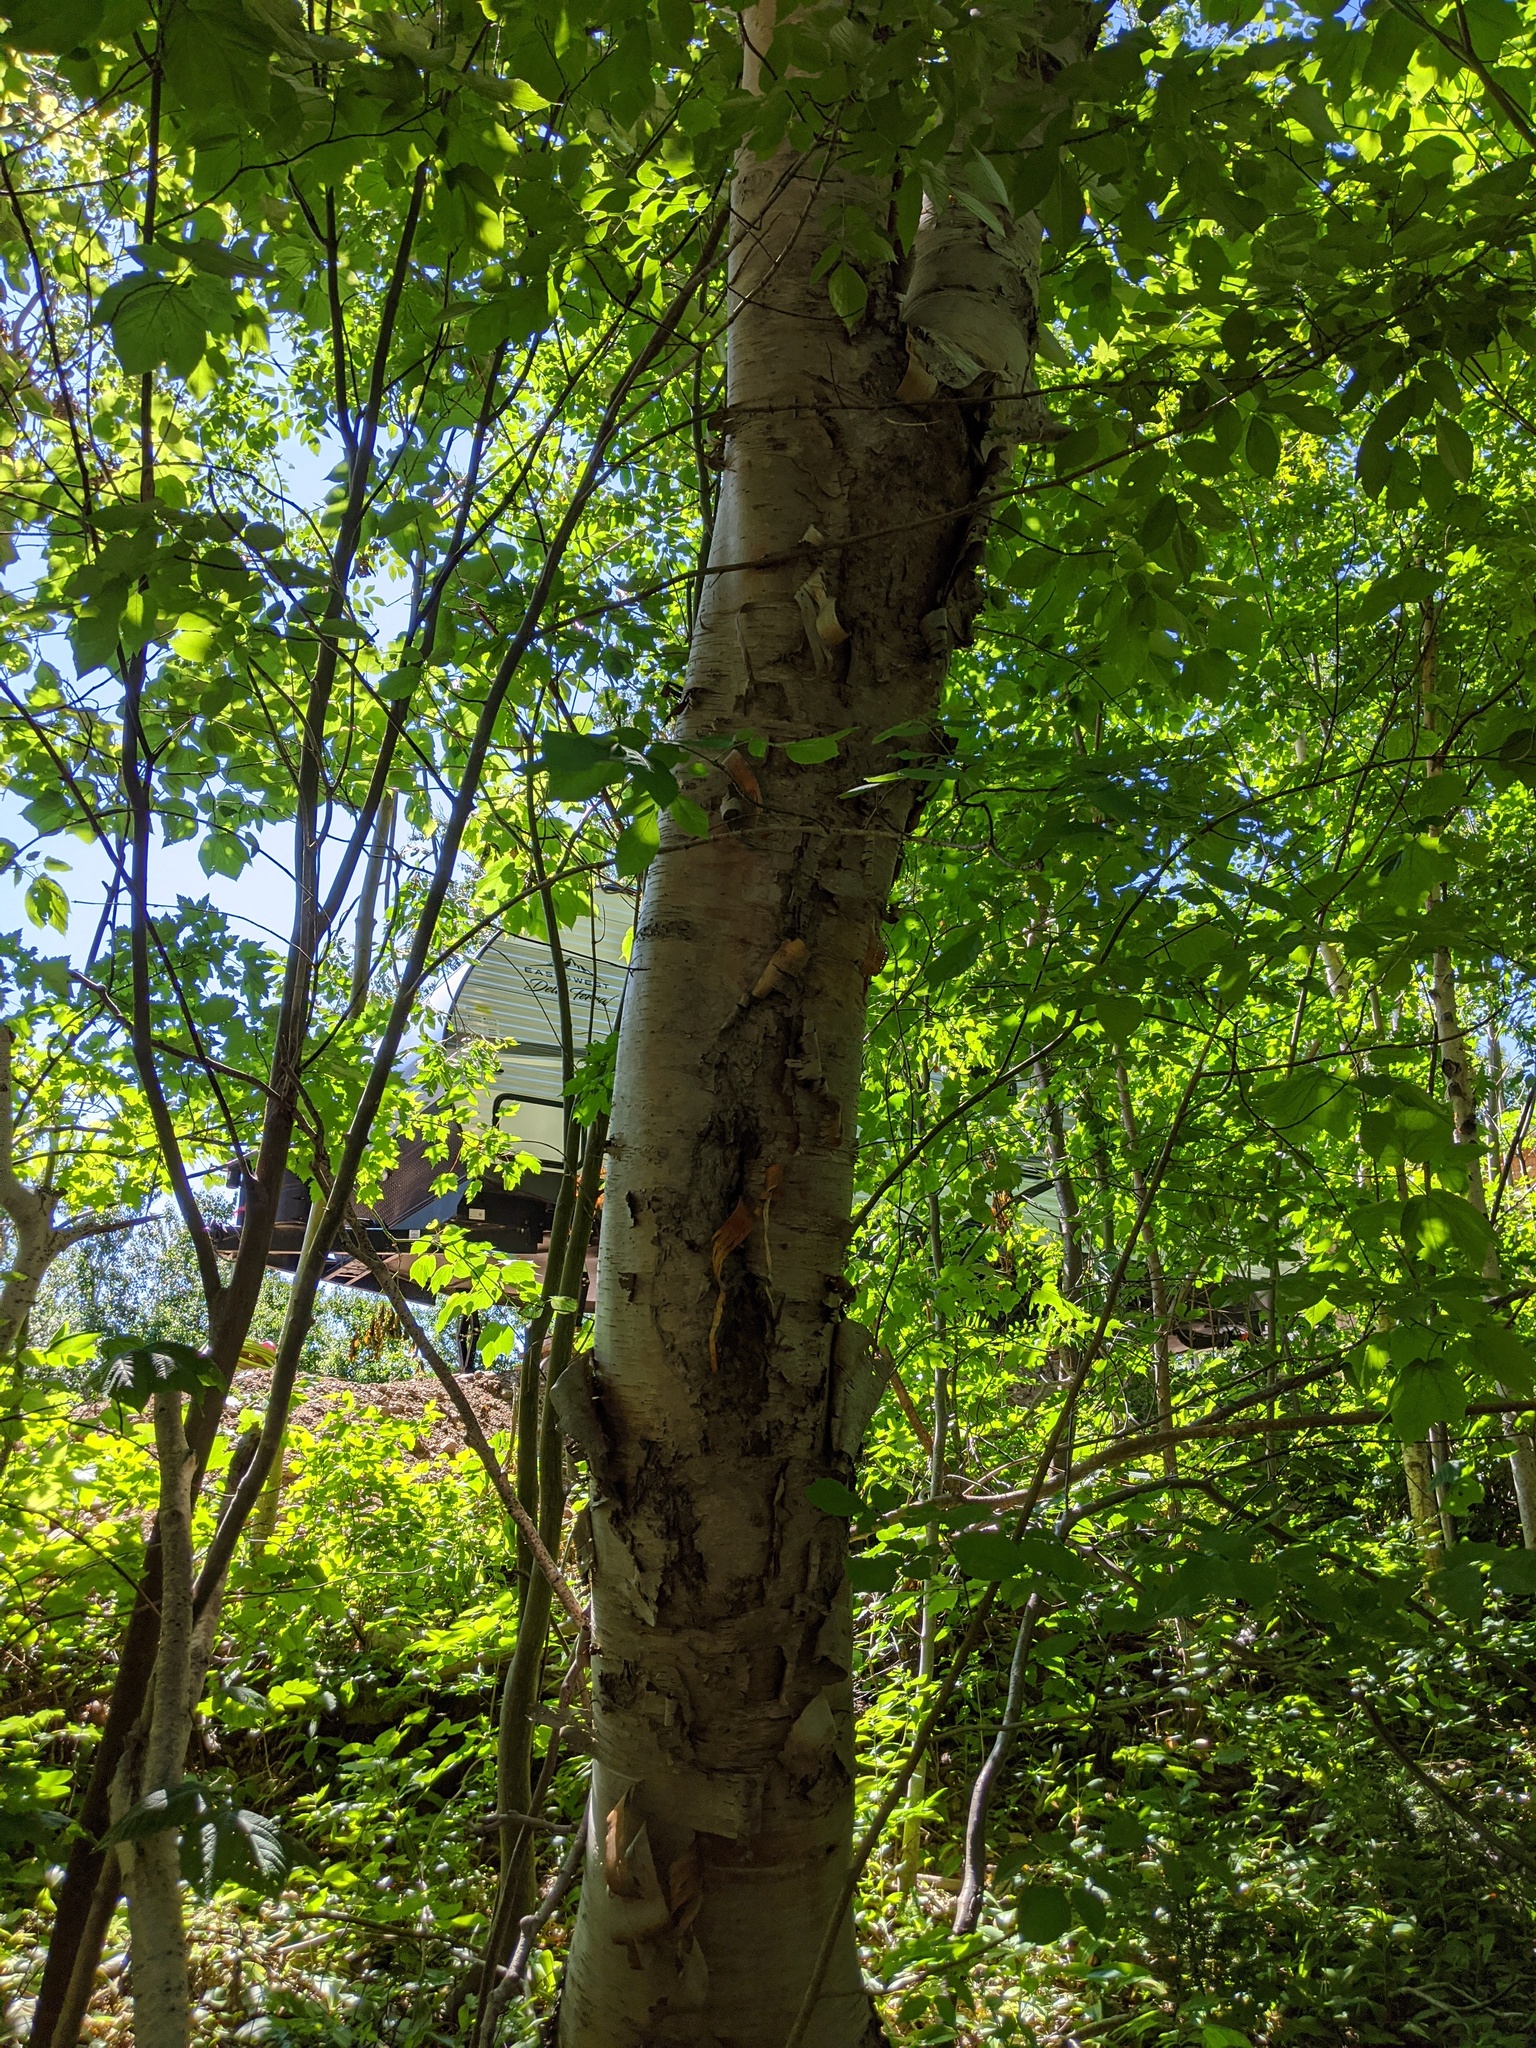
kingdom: Plantae
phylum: Tracheophyta
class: Magnoliopsida
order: Fagales
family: Betulaceae
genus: Betula
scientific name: Betula papyrifera
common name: Paper birch
